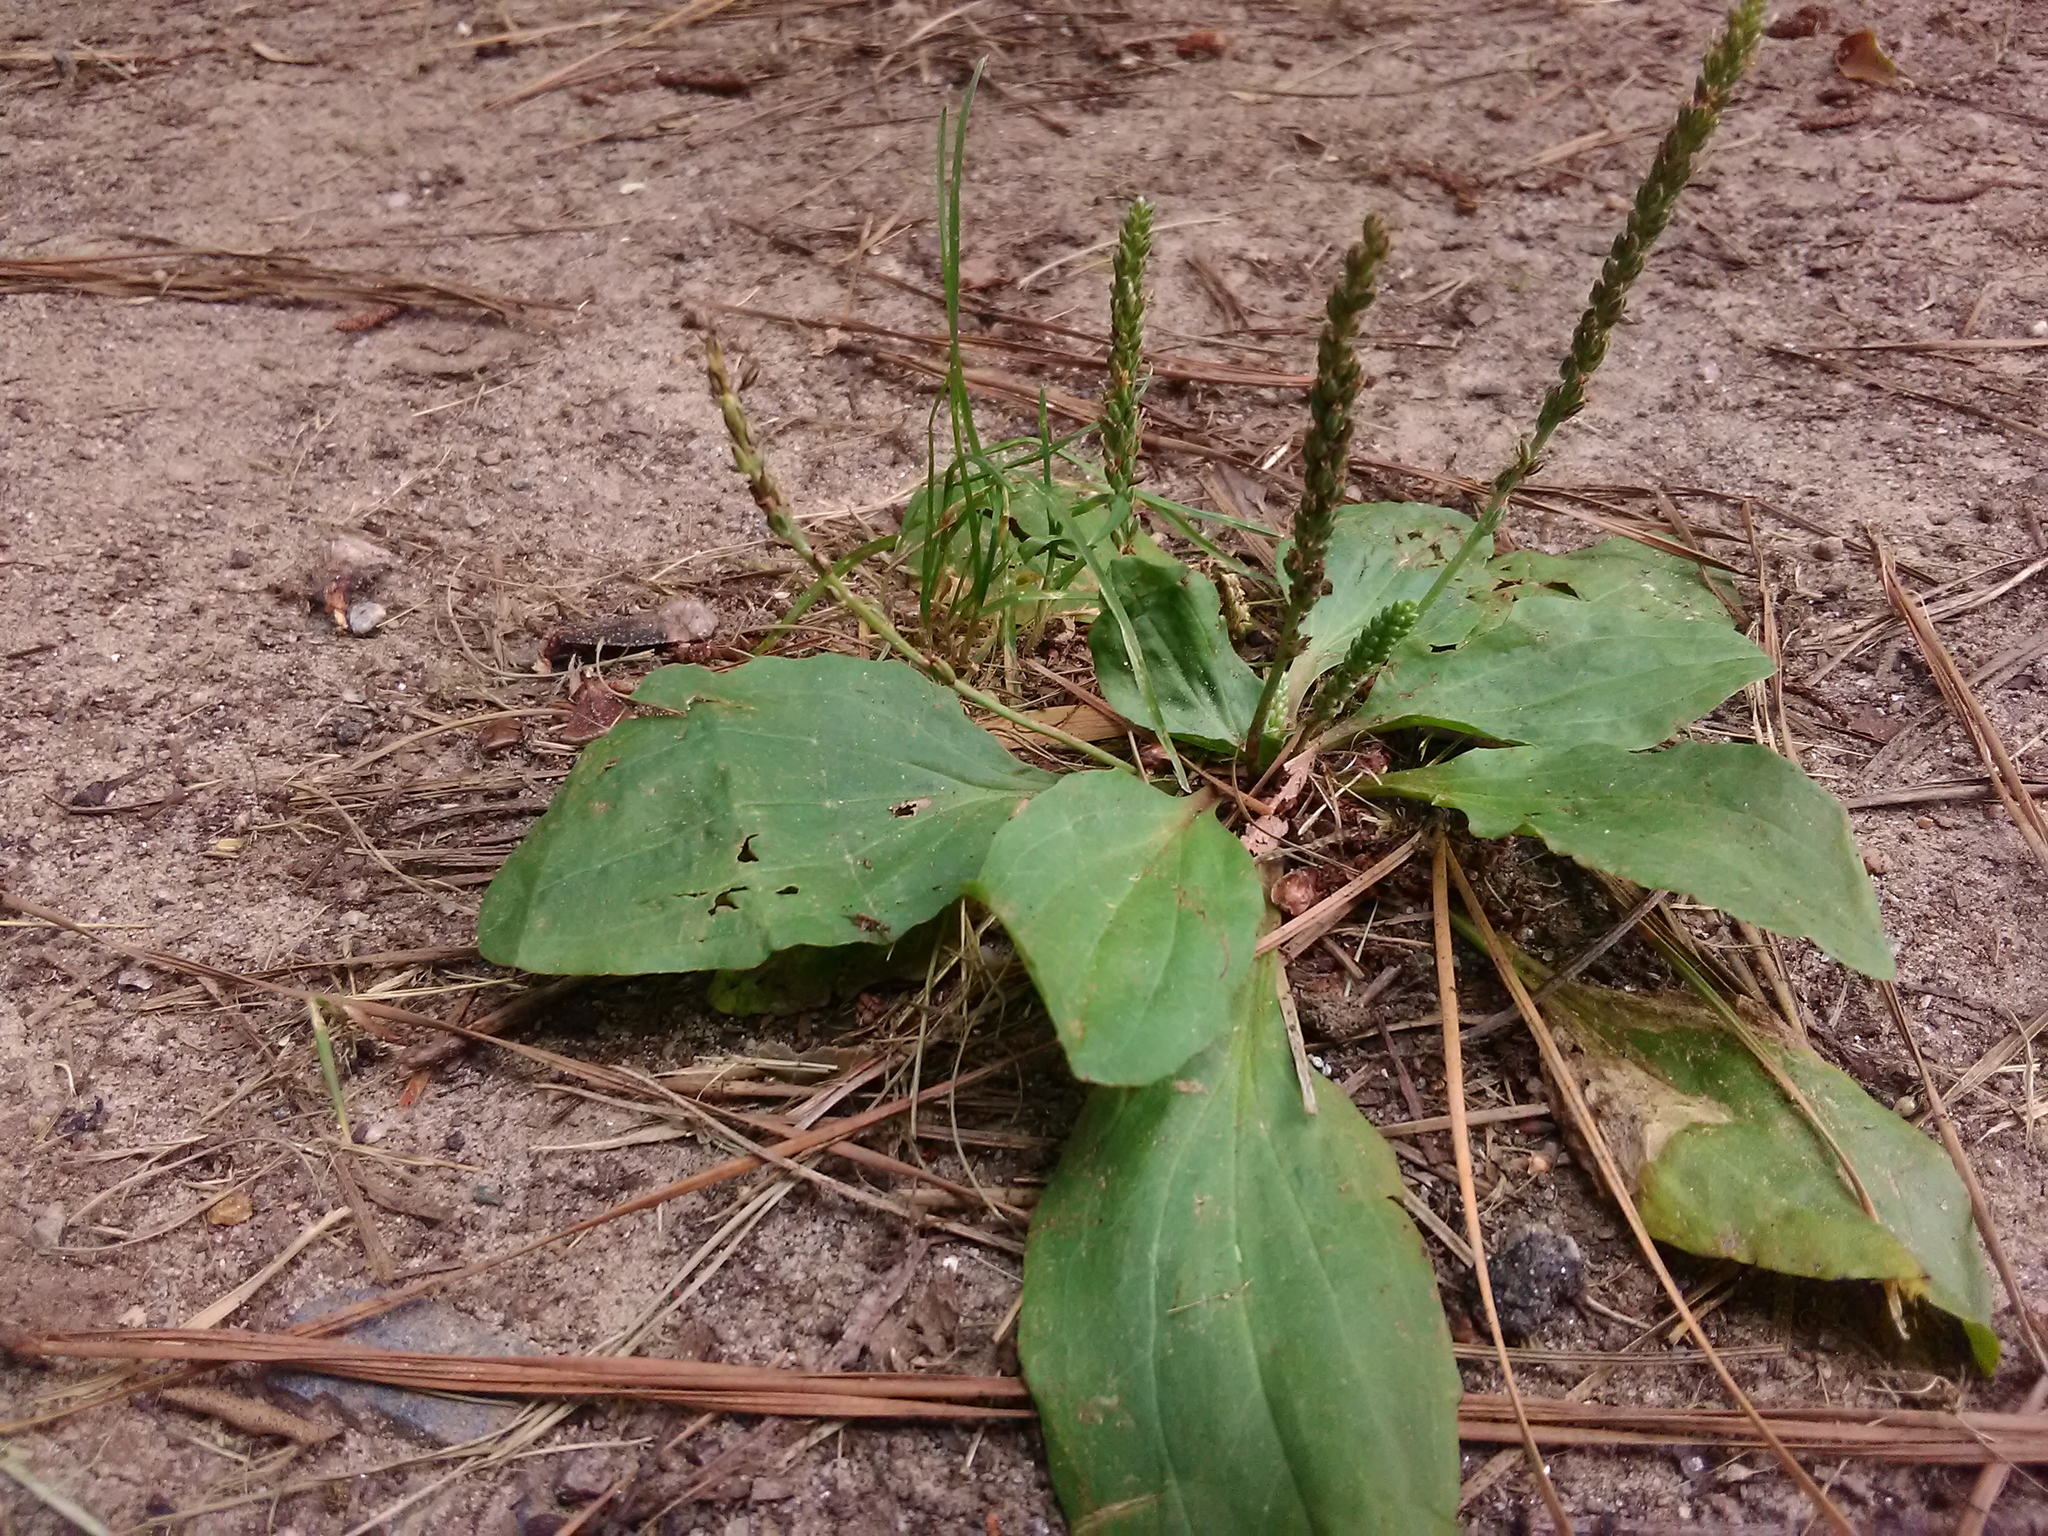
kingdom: Plantae
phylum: Tracheophyta
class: Magnoliopsida
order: Lamiales
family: Plantaginaceae
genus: Plantago
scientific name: Plantago major
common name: Common plantain
